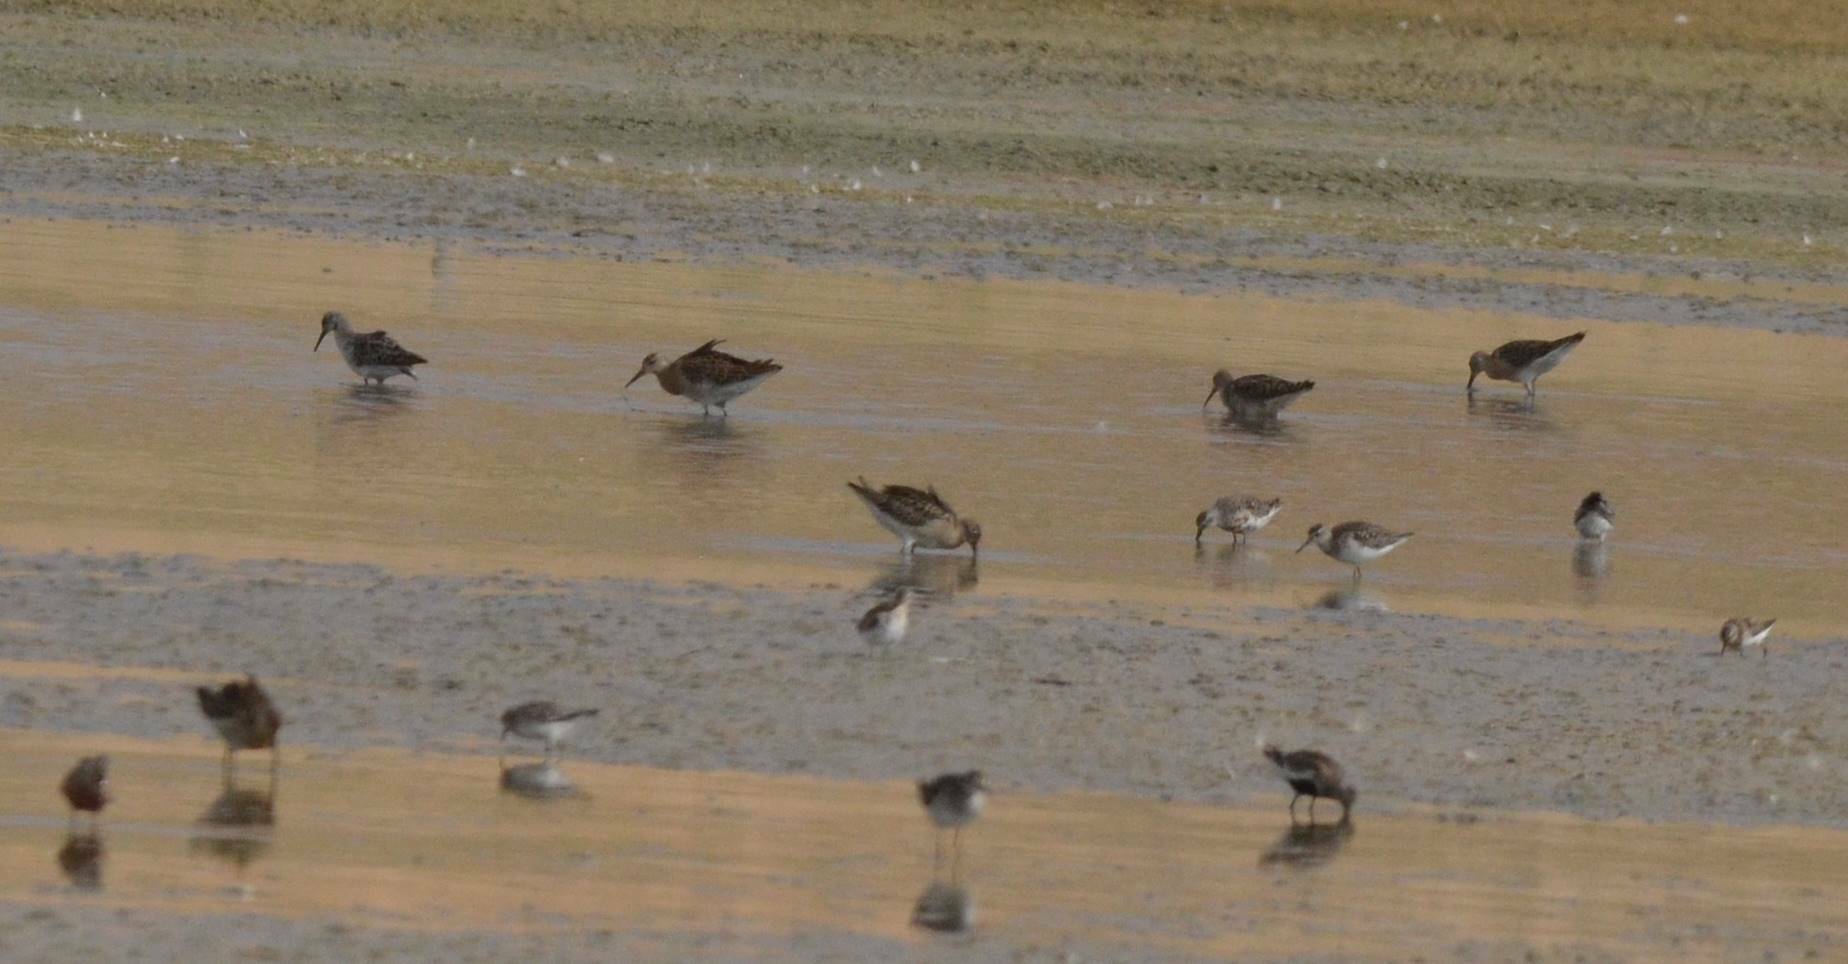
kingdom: Animalia
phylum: Chordata
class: Aves
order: Charadriiformes
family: Scolopacidae
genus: Calidris
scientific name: Calidris pugnax
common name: Ruff
